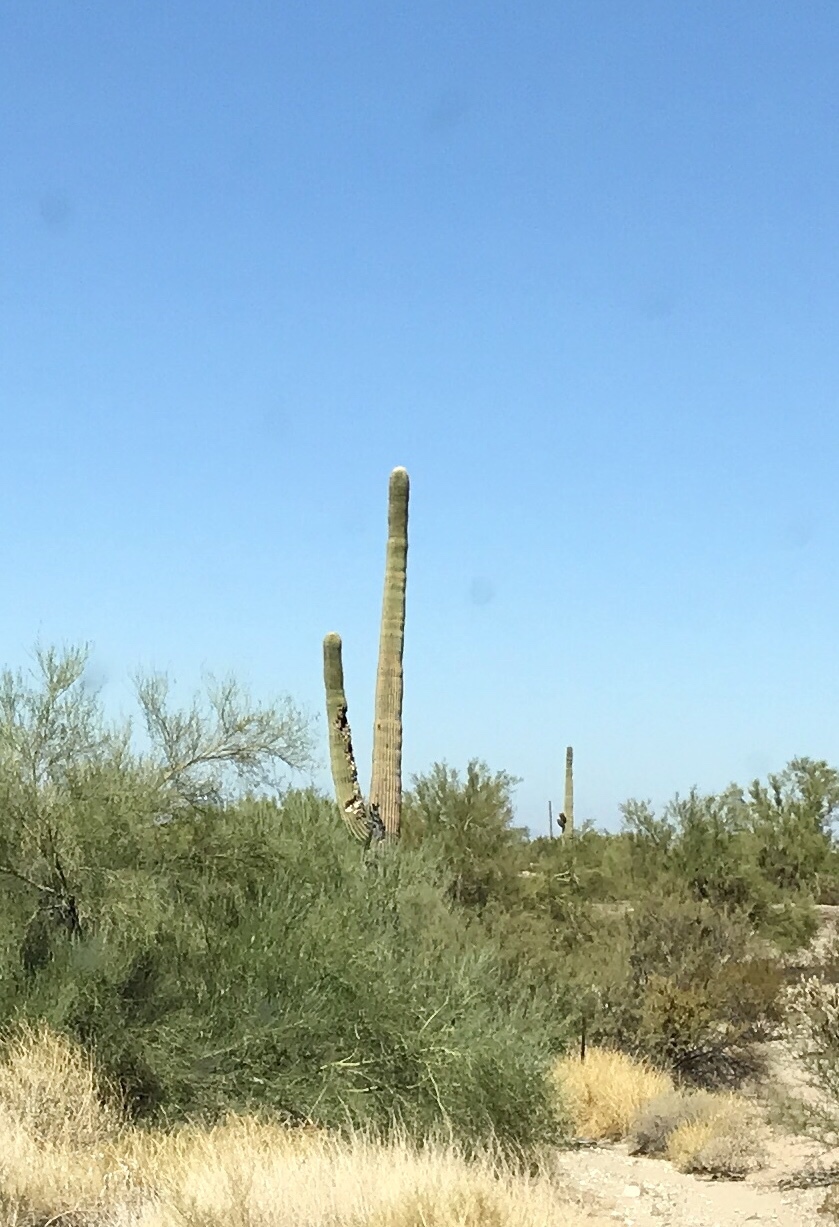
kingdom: Plantae
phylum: Tracheophyta
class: Magnoliopsida
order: Caryophyllales
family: Cactaceae
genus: Carnegiea
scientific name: Carnegiea gigantea
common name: Saguaro
